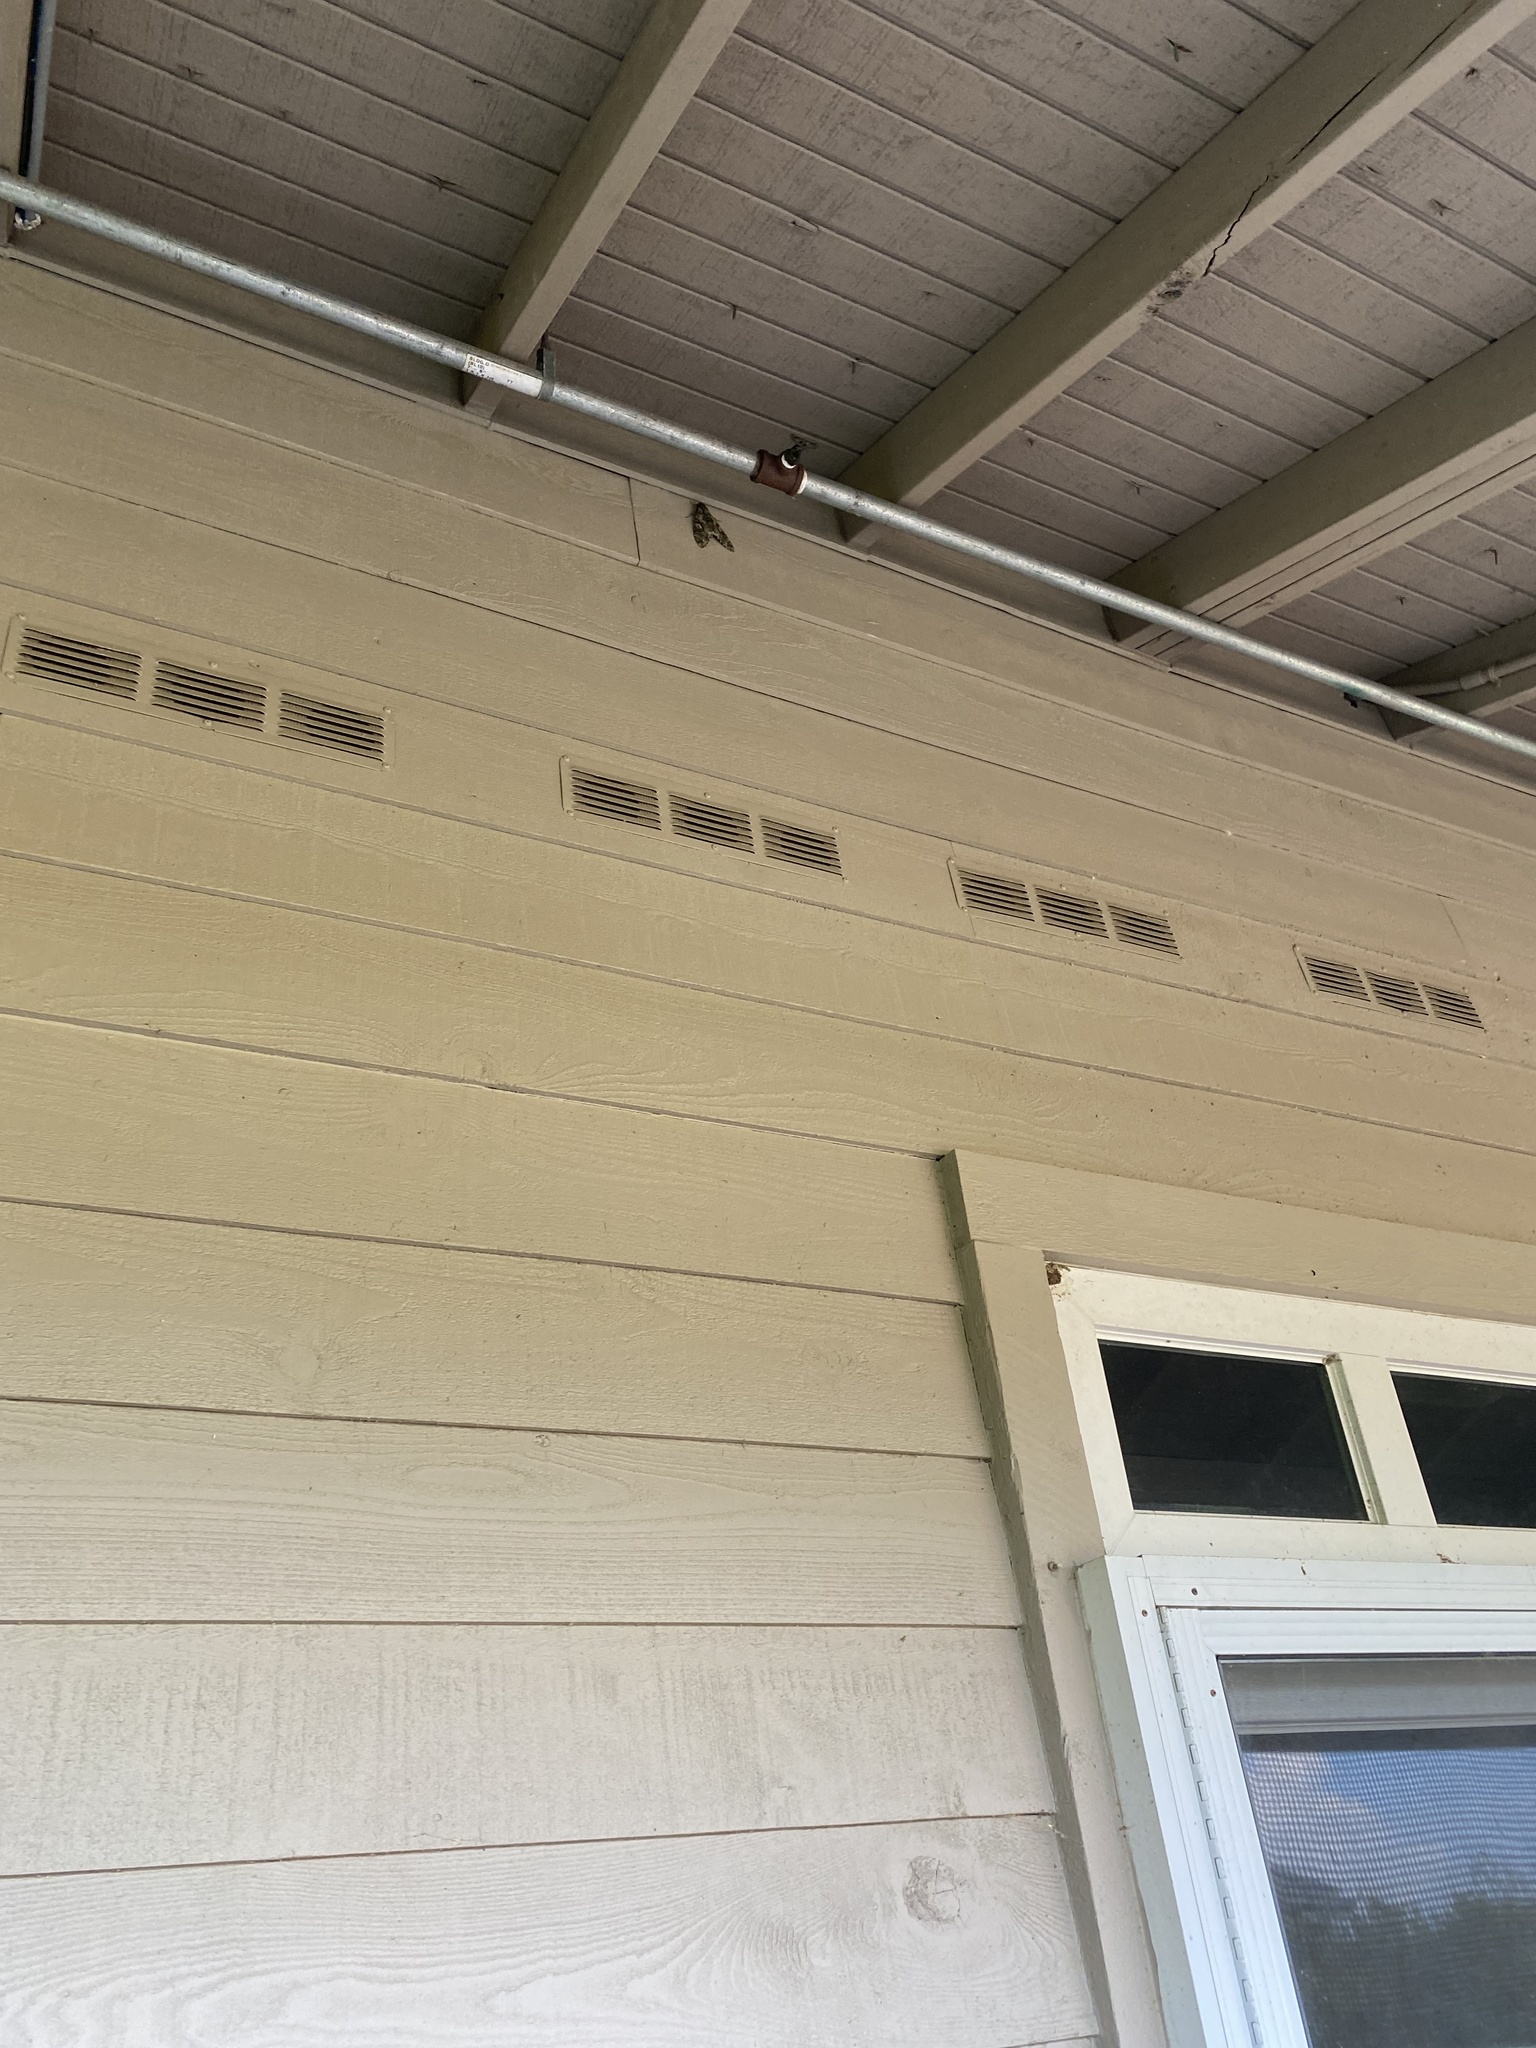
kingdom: Animalia
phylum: Arthropoda
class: Insecta
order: Lepidoptera
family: Sphingidae
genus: Ceratomia
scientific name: Ceratomia undulosa
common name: Waved sphinx
